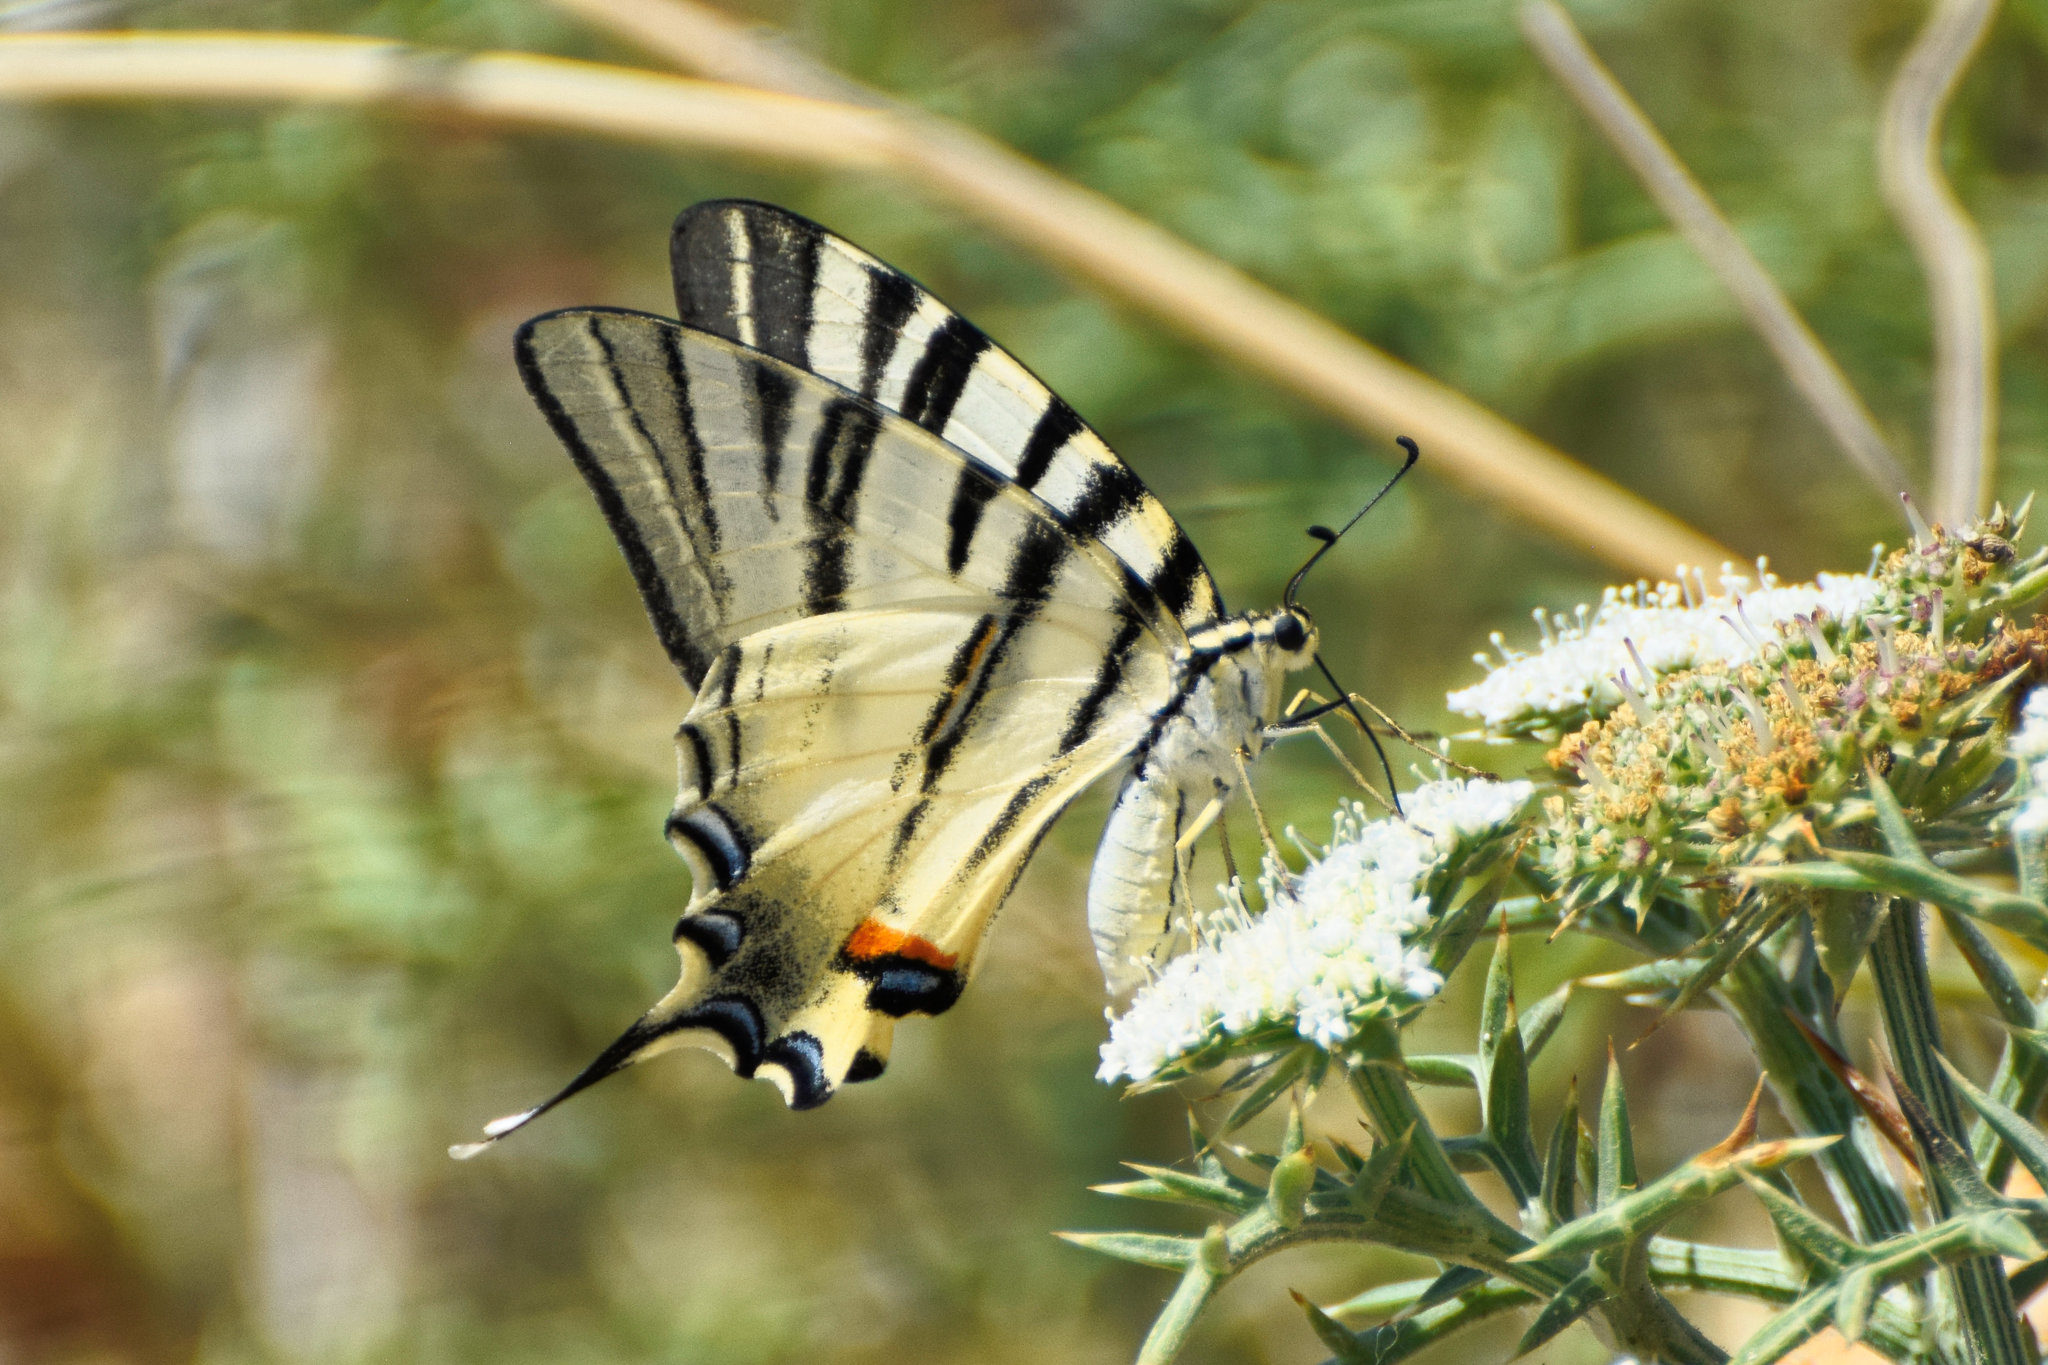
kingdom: Animalia
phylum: Arthropoda
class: Insecta
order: Lepidoptera
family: Papilionidae
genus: Iphiclides
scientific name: Iphiclides podalirius
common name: Scarce swallowtail
